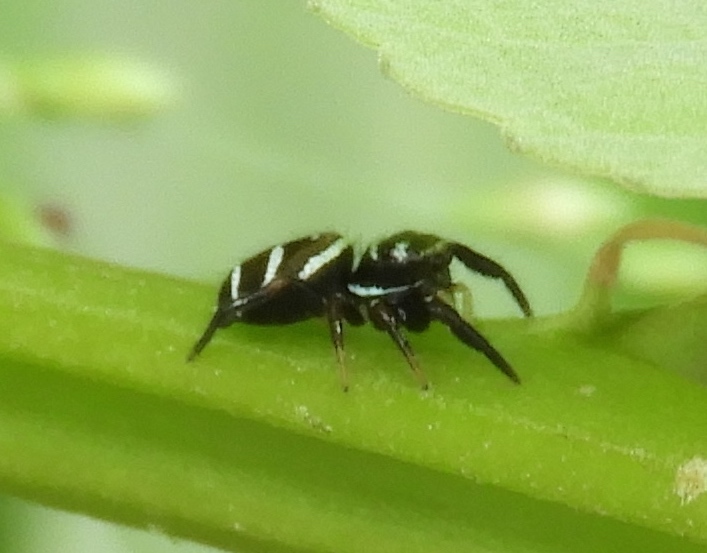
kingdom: Animalia
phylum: Arthropoda
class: Arachnida
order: Araneae
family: Salticidae
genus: Sassacus
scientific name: Sassacus
